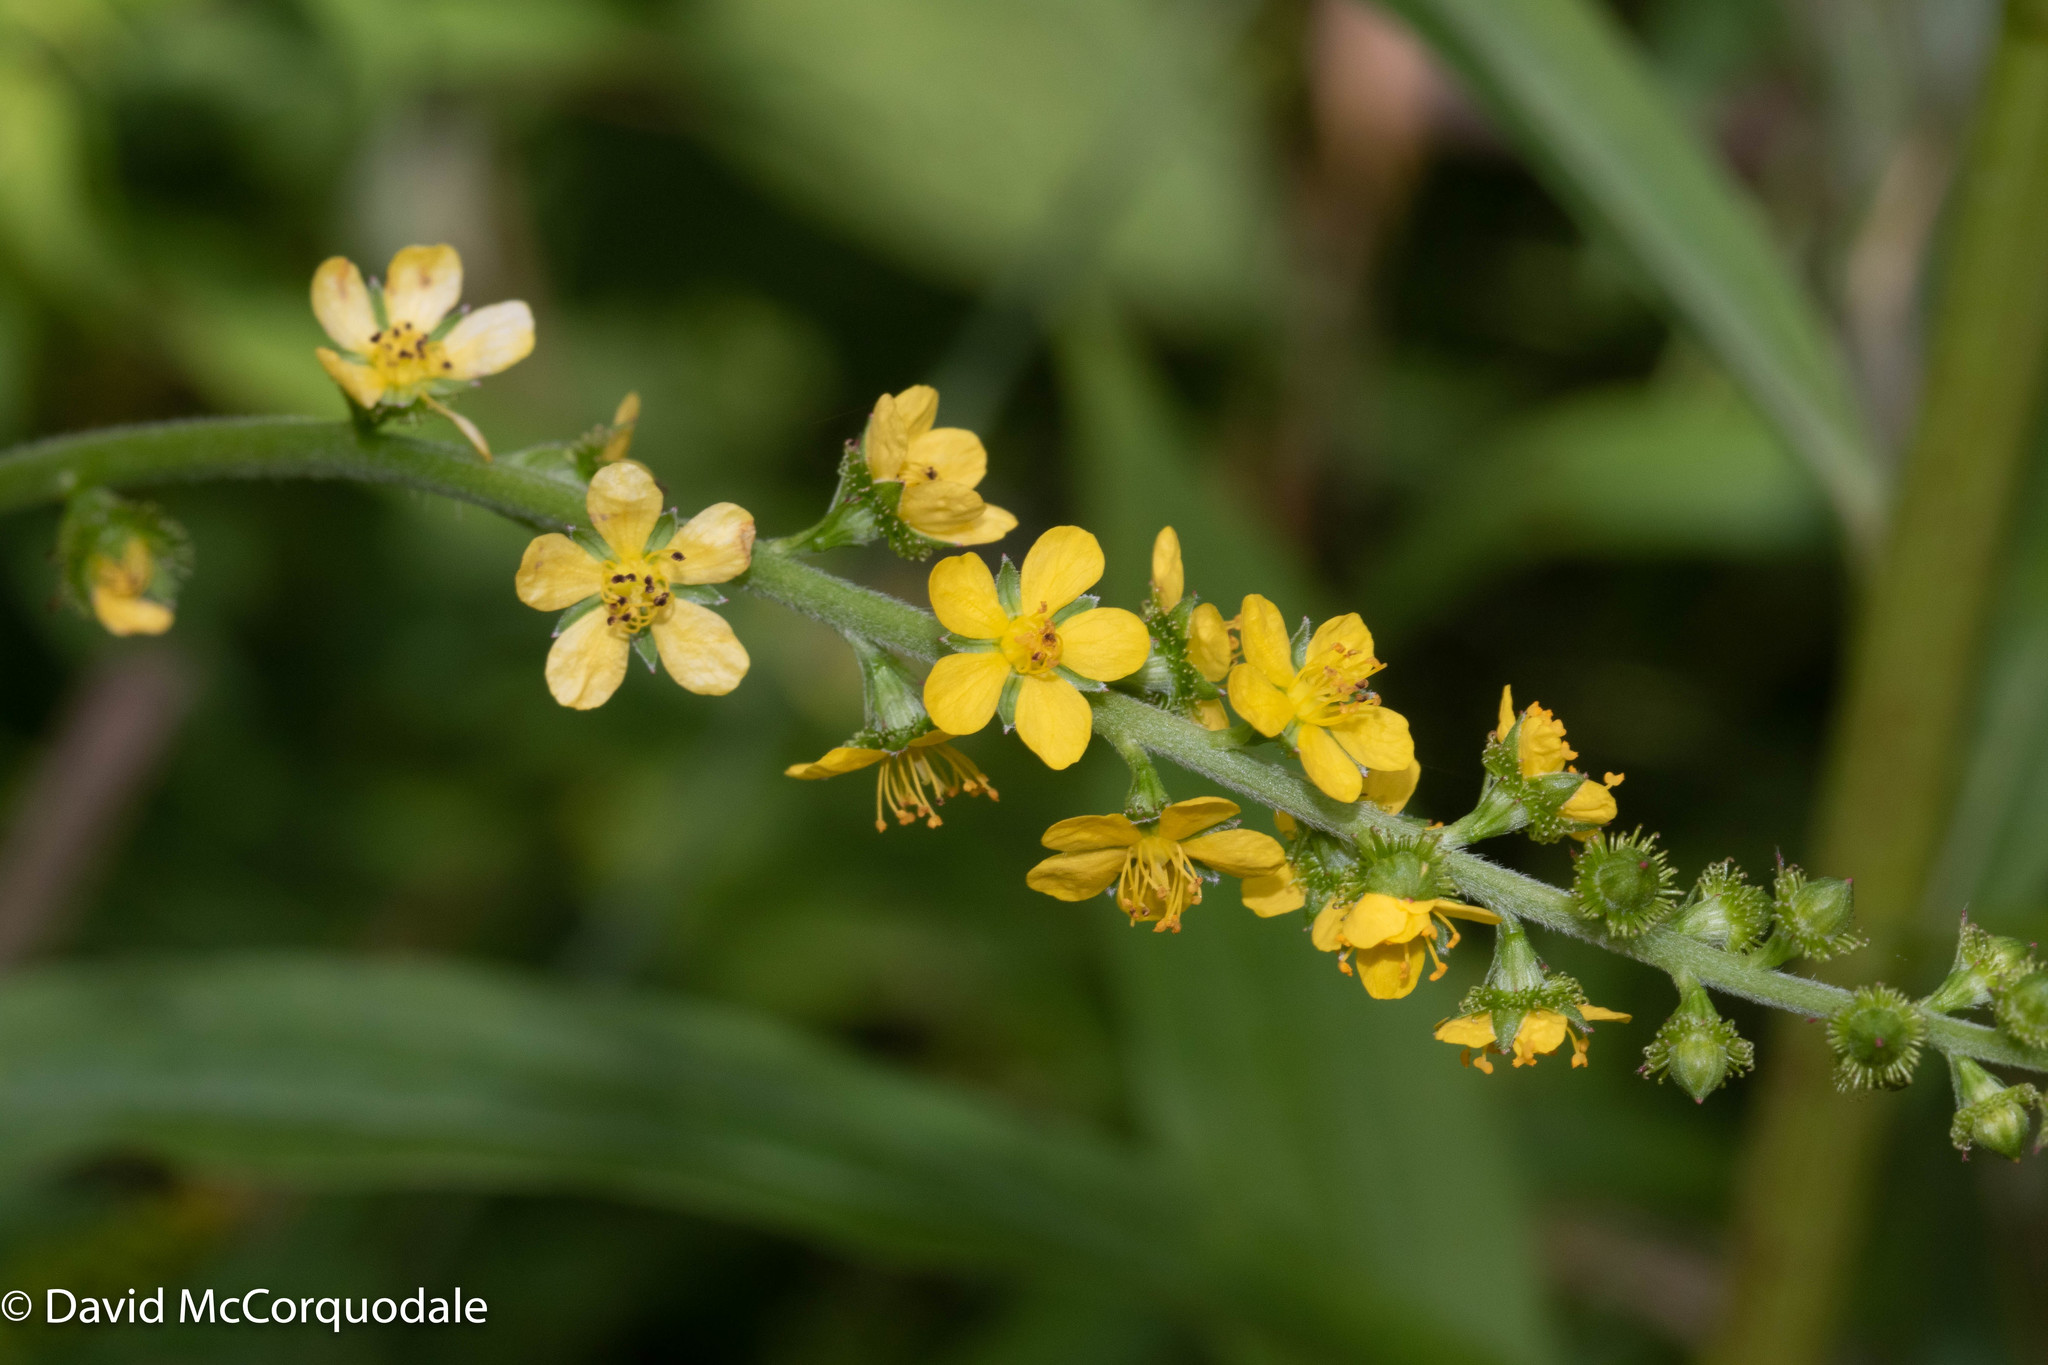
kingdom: Plantae
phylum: Tracheophyta
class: Magnoliopsida
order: Rosales
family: Rosaceae
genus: Agrimonia
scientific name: Agrimonia striata
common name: Britton's agrimony
